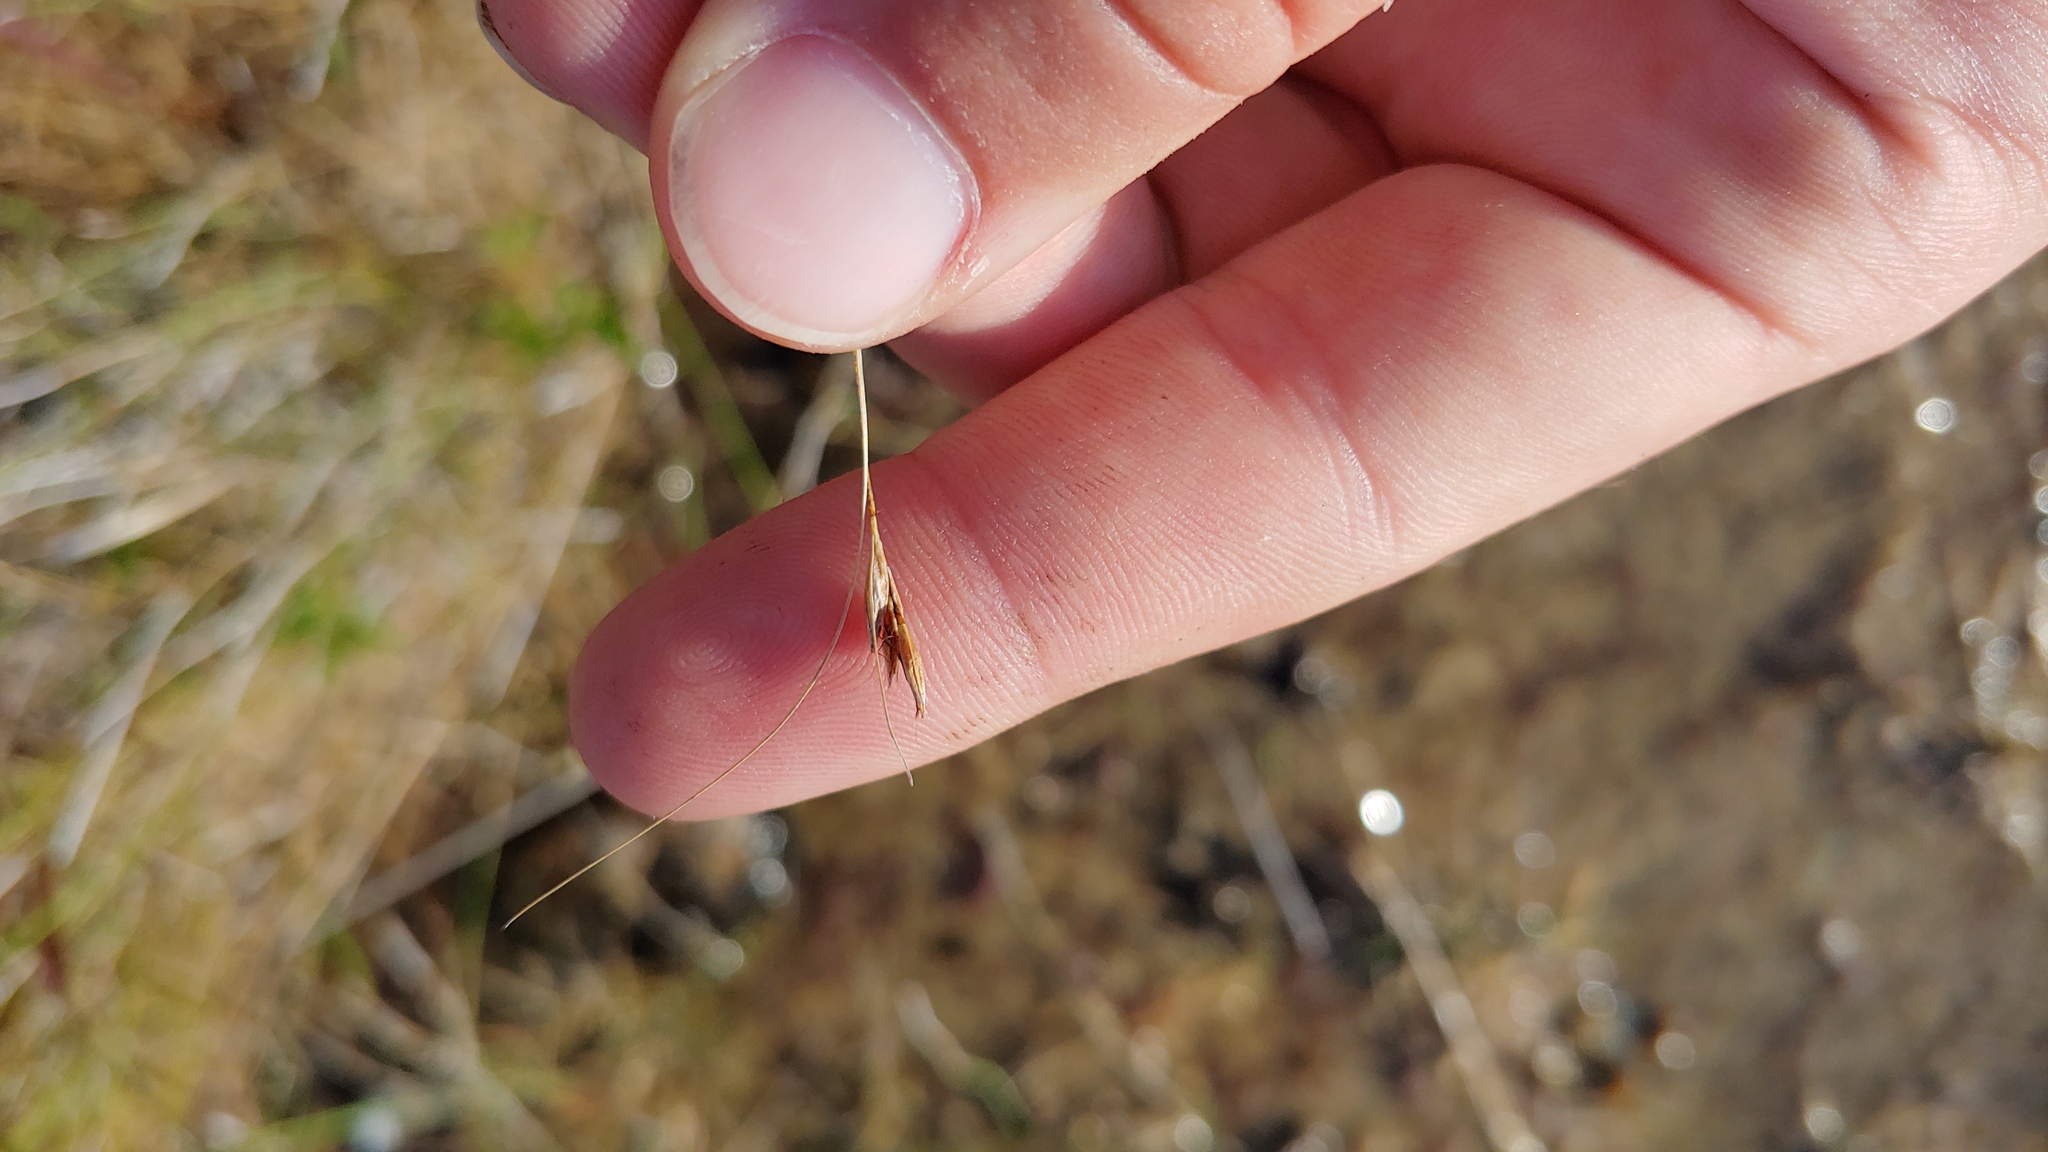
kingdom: Plantae
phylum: Tracheophyta
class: Liliopsida
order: Poales
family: Cyperaceae
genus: Rhynchospora
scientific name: Rhynchospora capillacea
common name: Capillary beakrush
